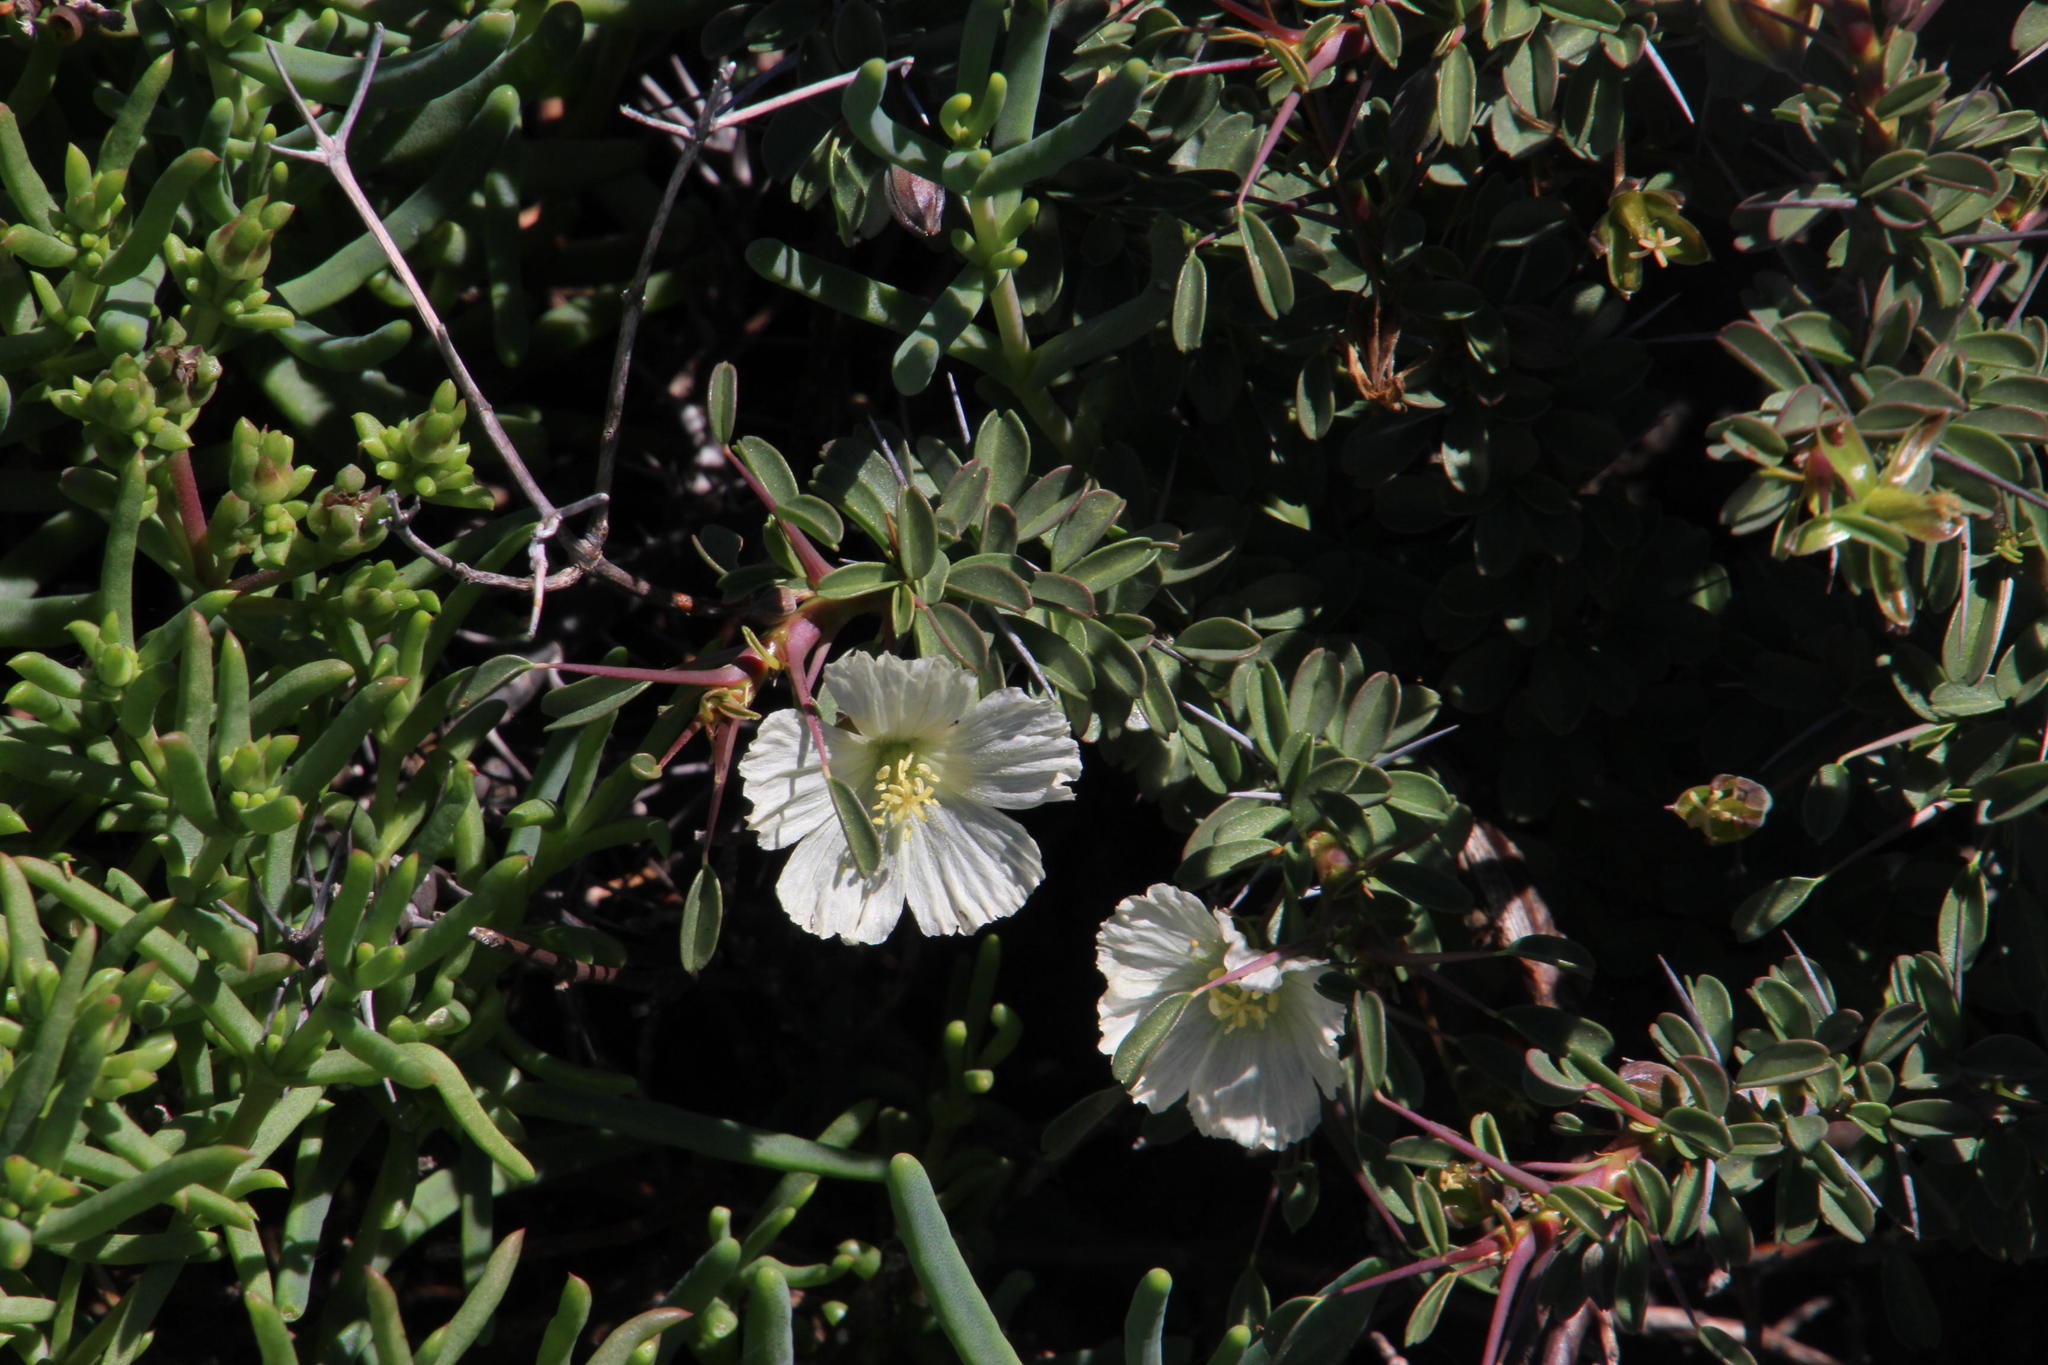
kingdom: Plantae
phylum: Tracheophyta
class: Magnoliopsida
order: Geraniales
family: Geraniaceae
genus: Monsonia
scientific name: Monsonia camdeboensis
